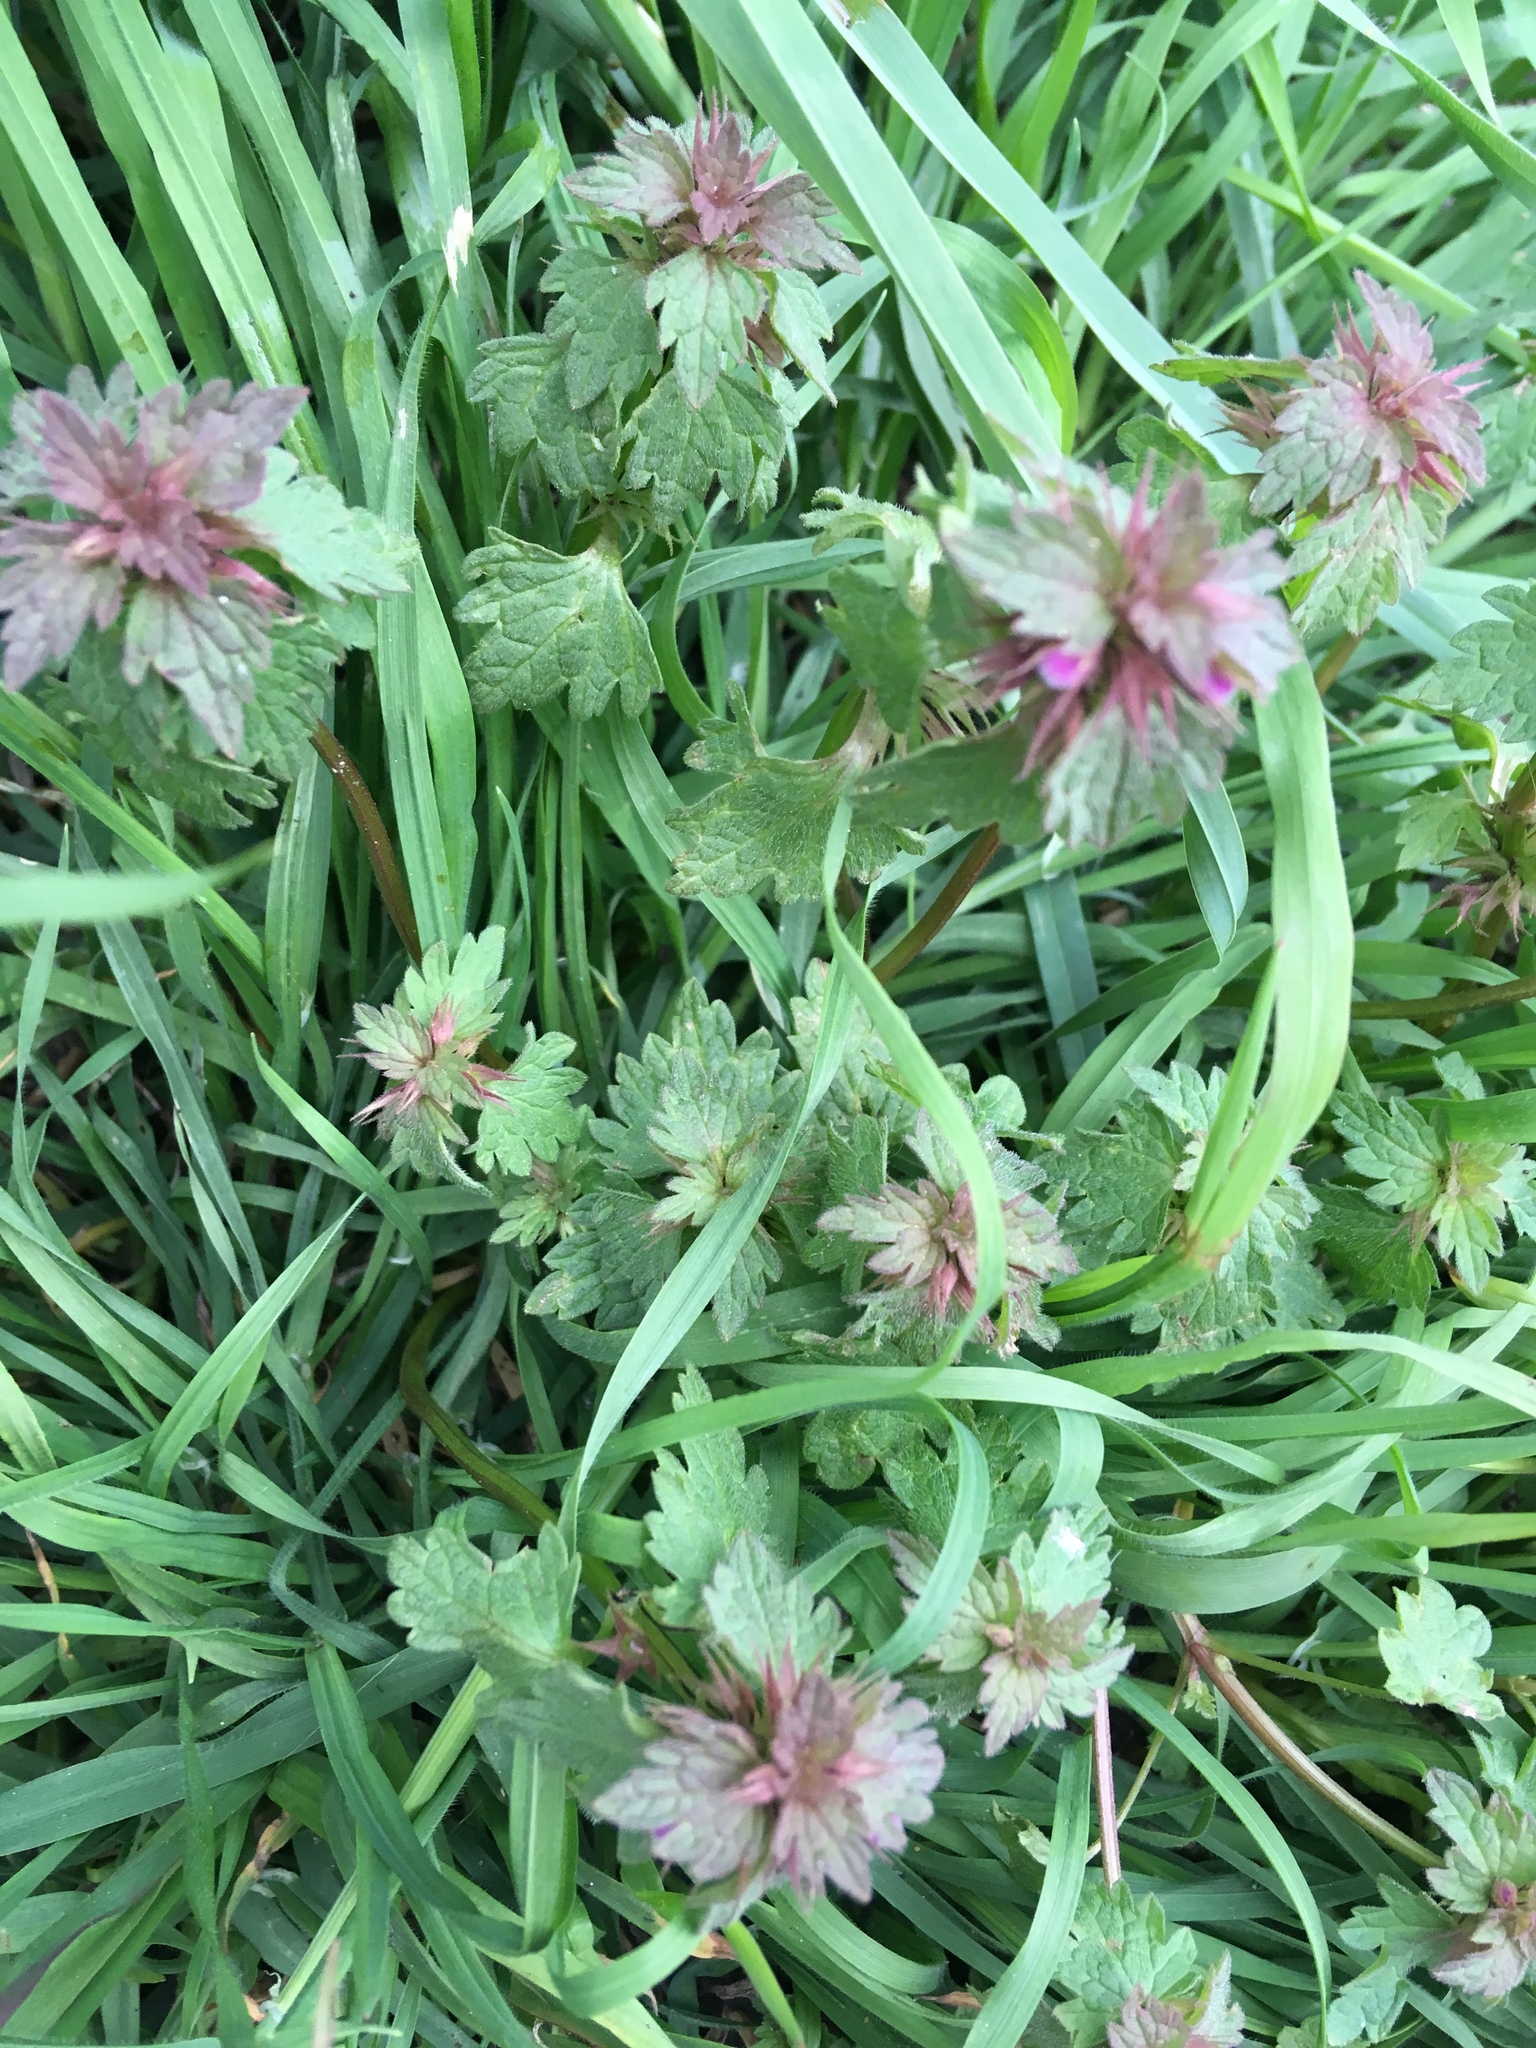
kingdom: Plantae
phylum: Tracheophyta
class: Magnoliopsida
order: Lamiales
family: Lamiaceae
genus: Lamium
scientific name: Lamium hybridum
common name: Cut-leaved dead-nettle
